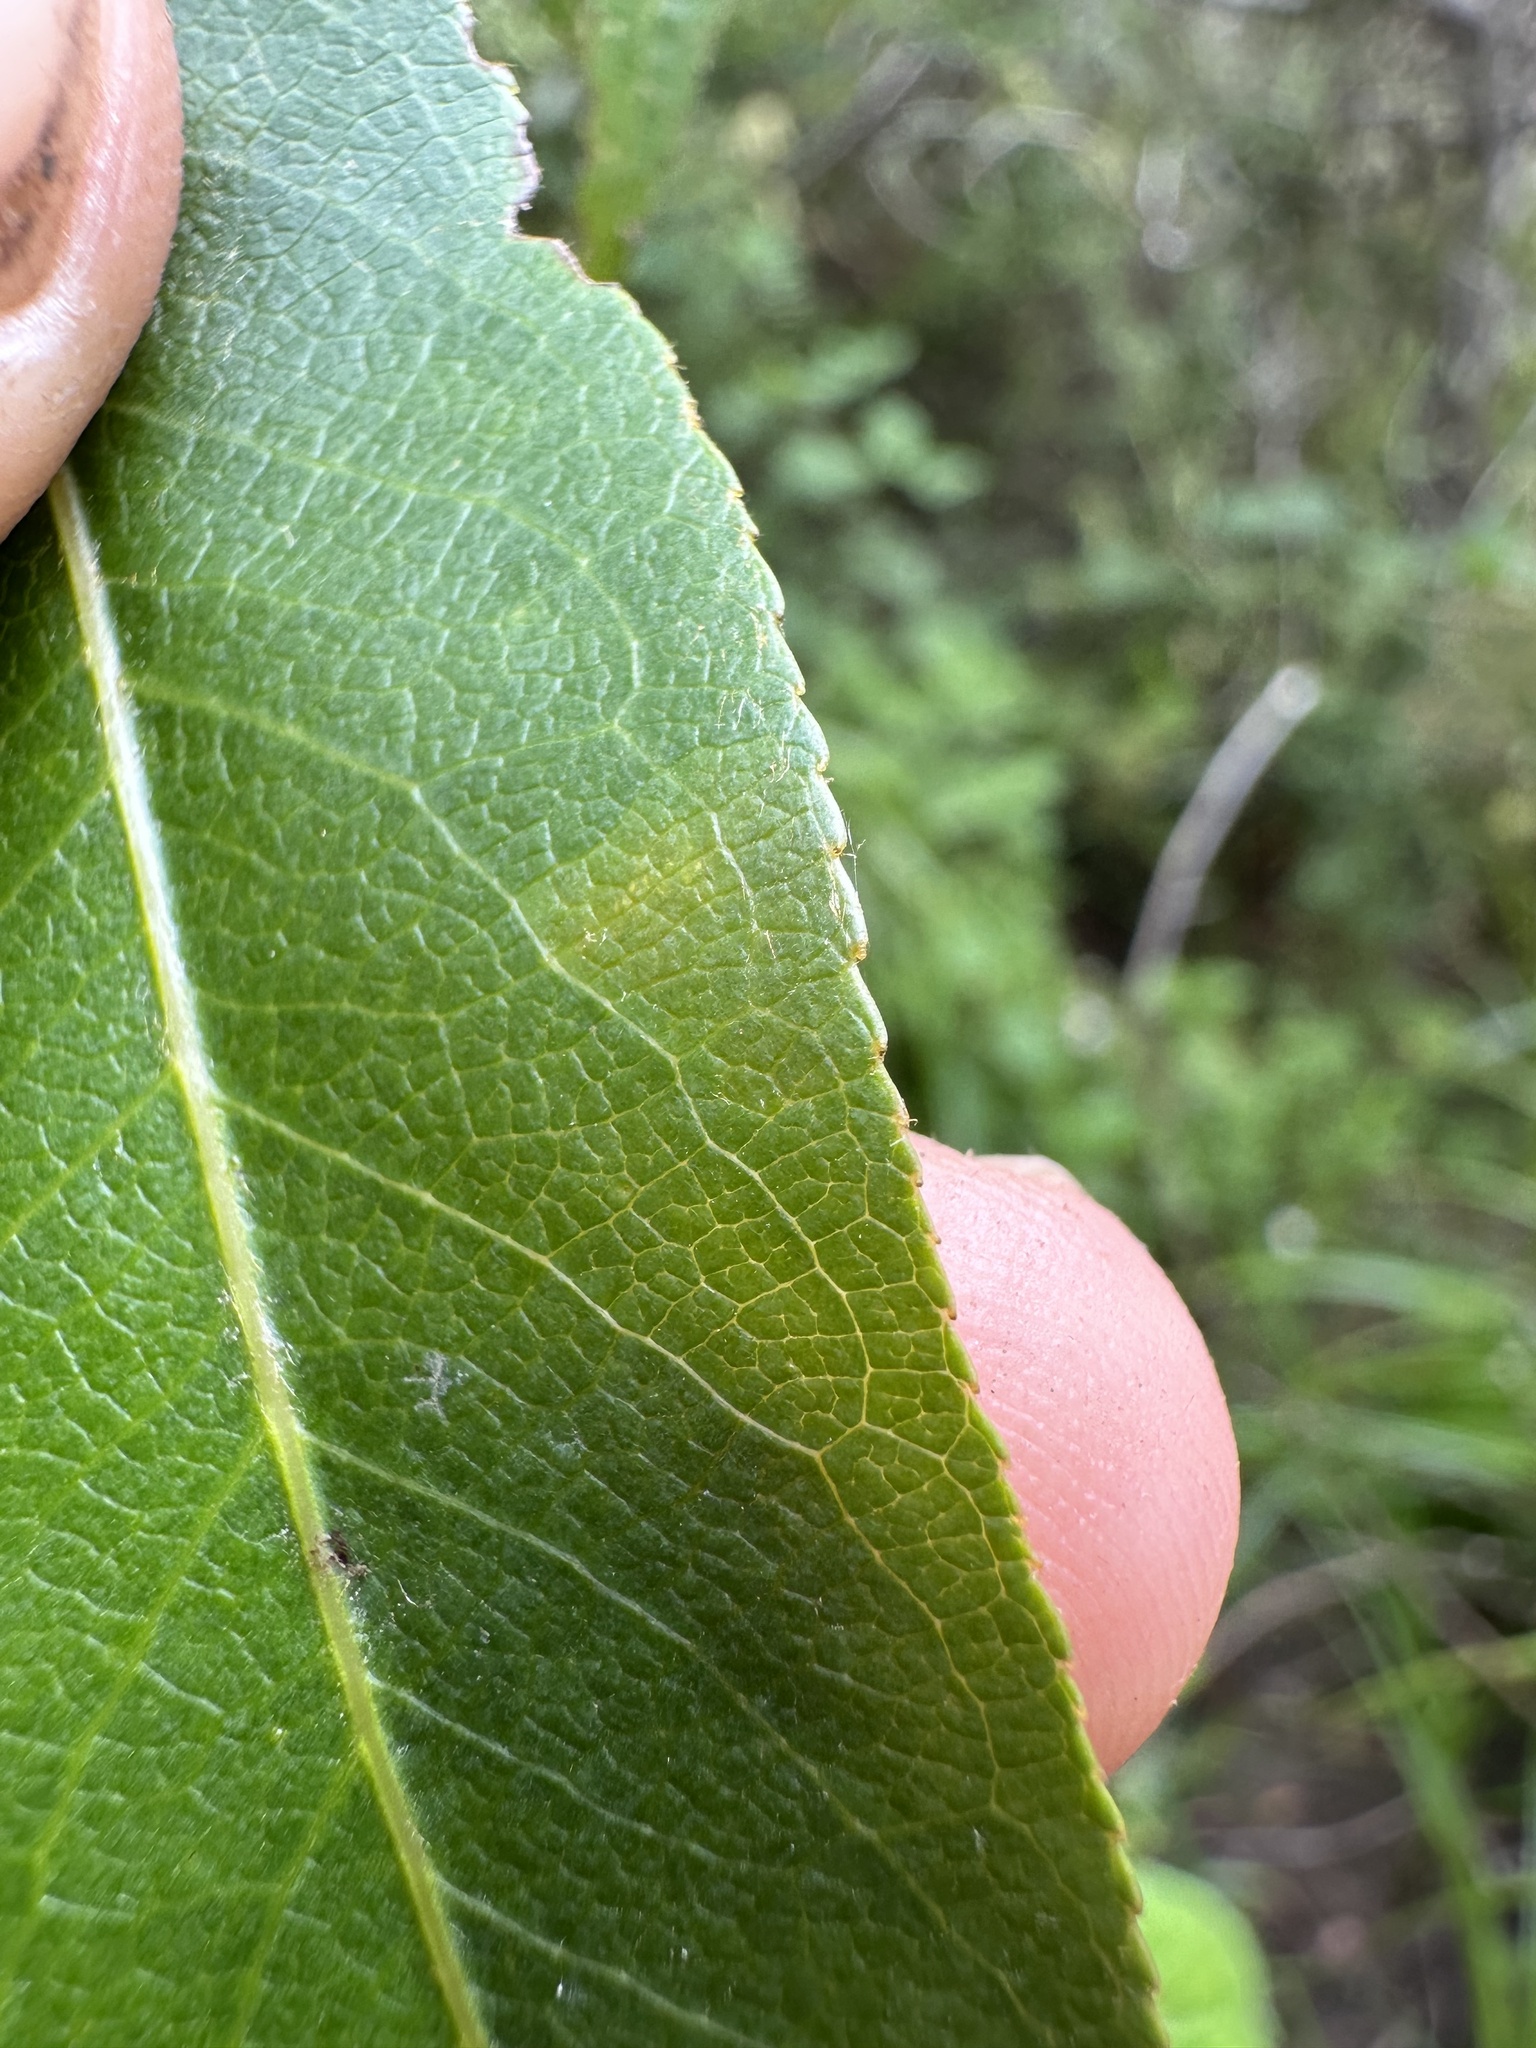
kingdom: Plantae
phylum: Tracheophyta
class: Magnoliopsida
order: Malpighiales
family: Salicaceae
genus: Salix
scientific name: Salix lucida
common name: Shining willow
